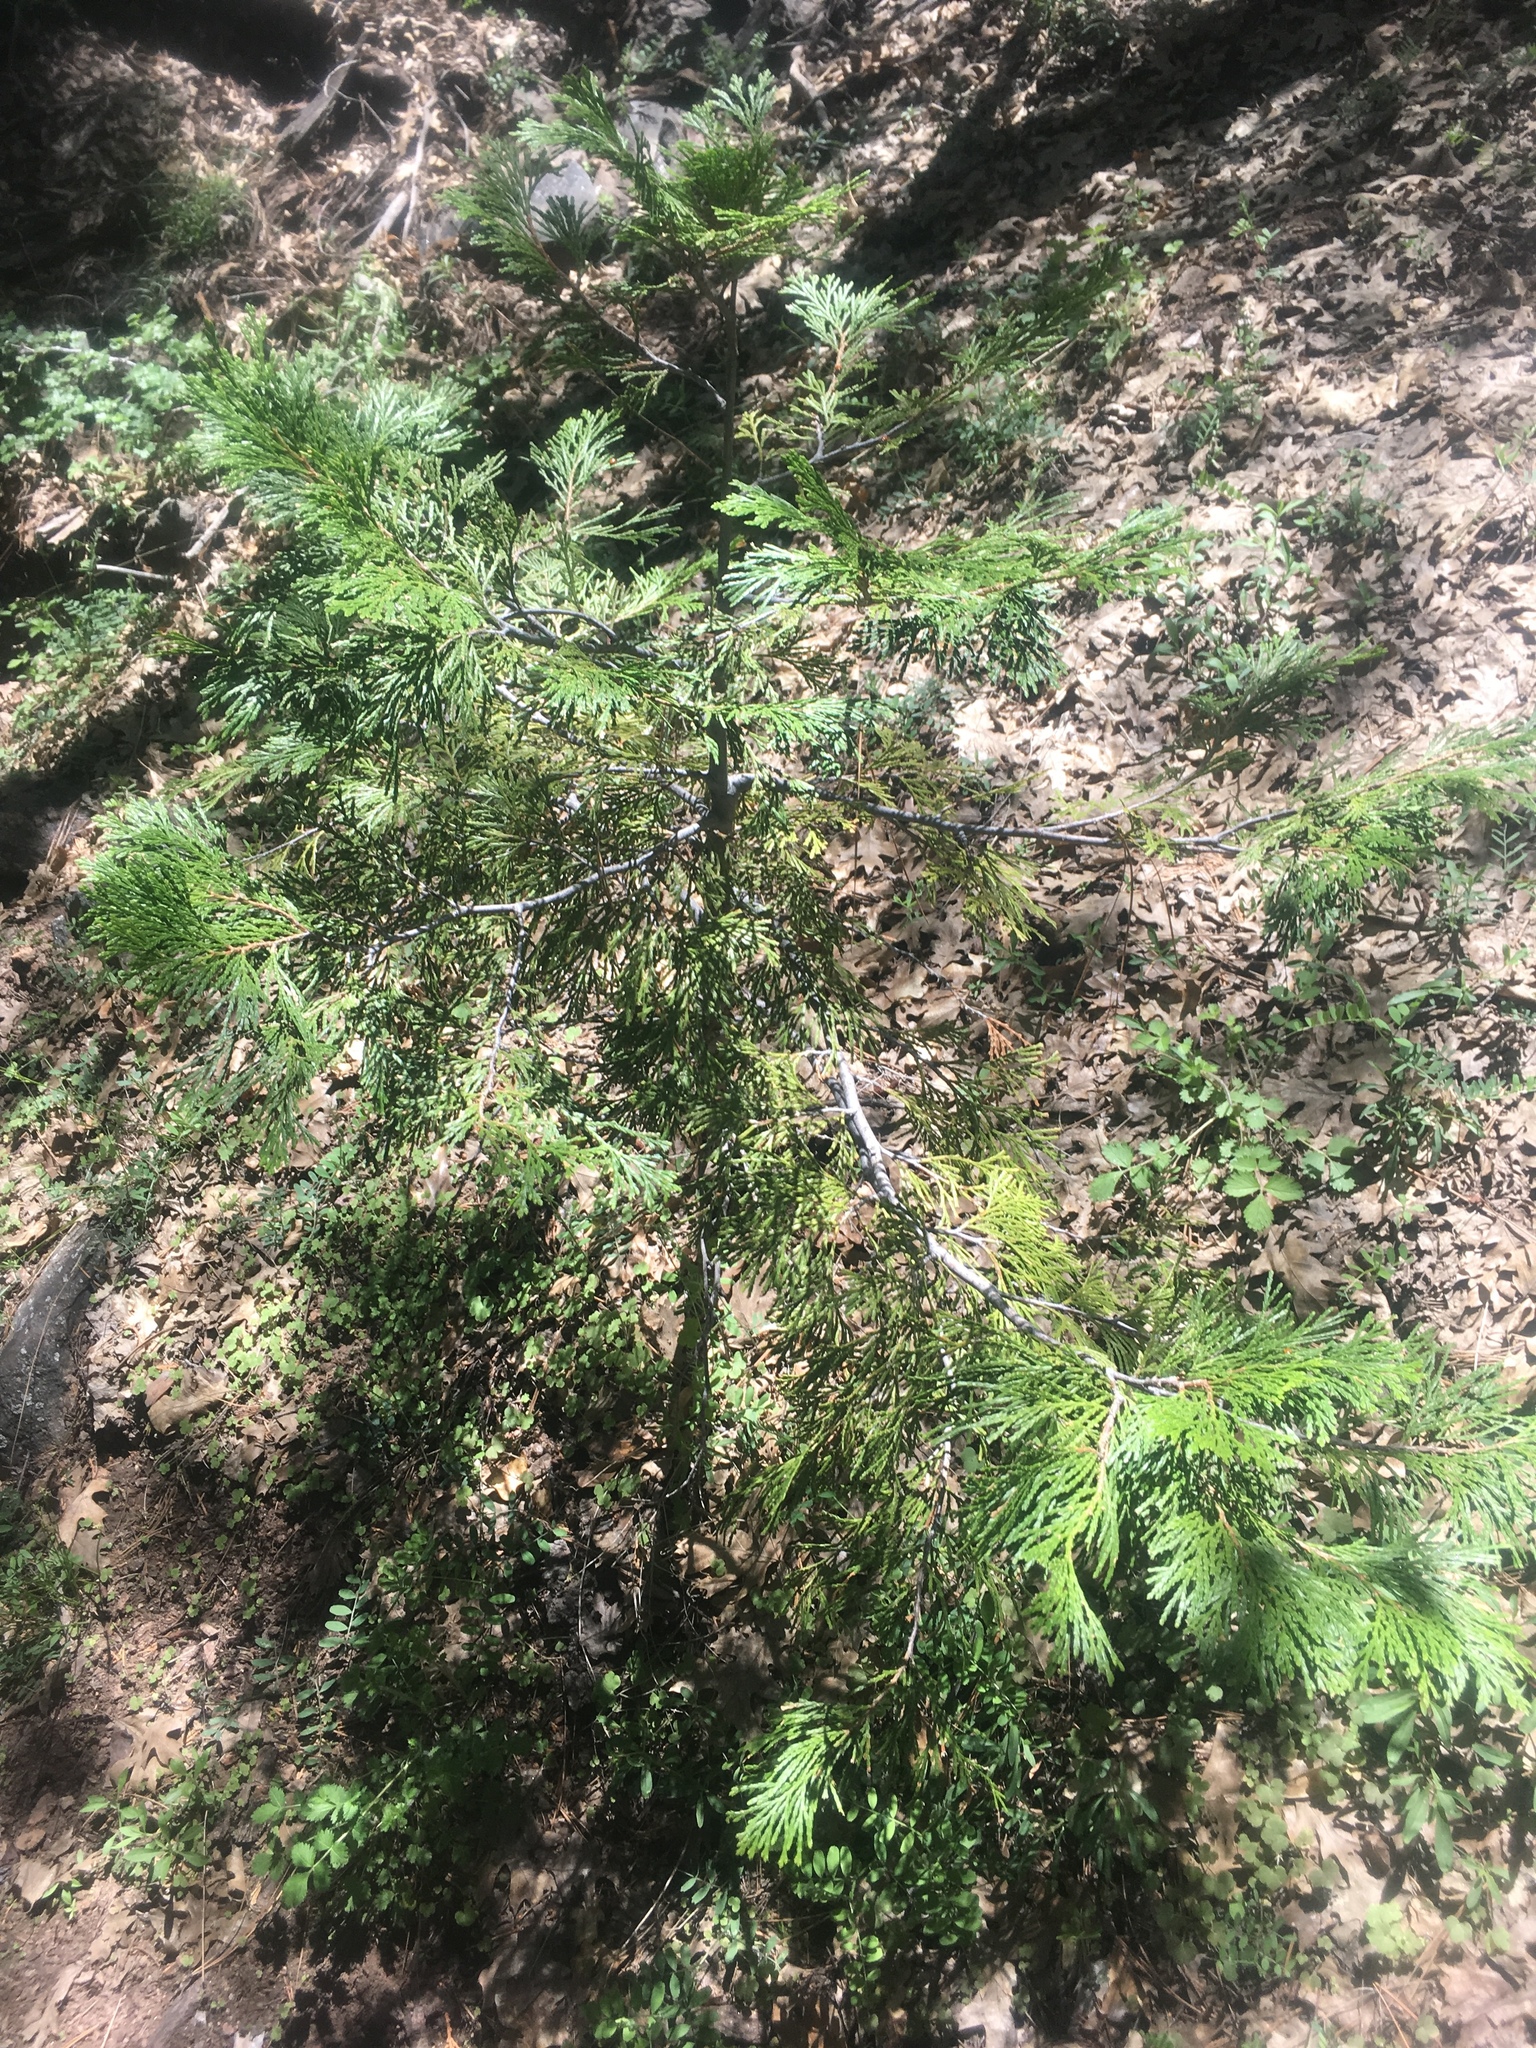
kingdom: Plantae
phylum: Tracheophyta
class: Pinopsida
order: Pinales
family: Cupressaceae
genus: Calocedrus
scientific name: Calocedrus decurrens
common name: Californian incense-cedar
